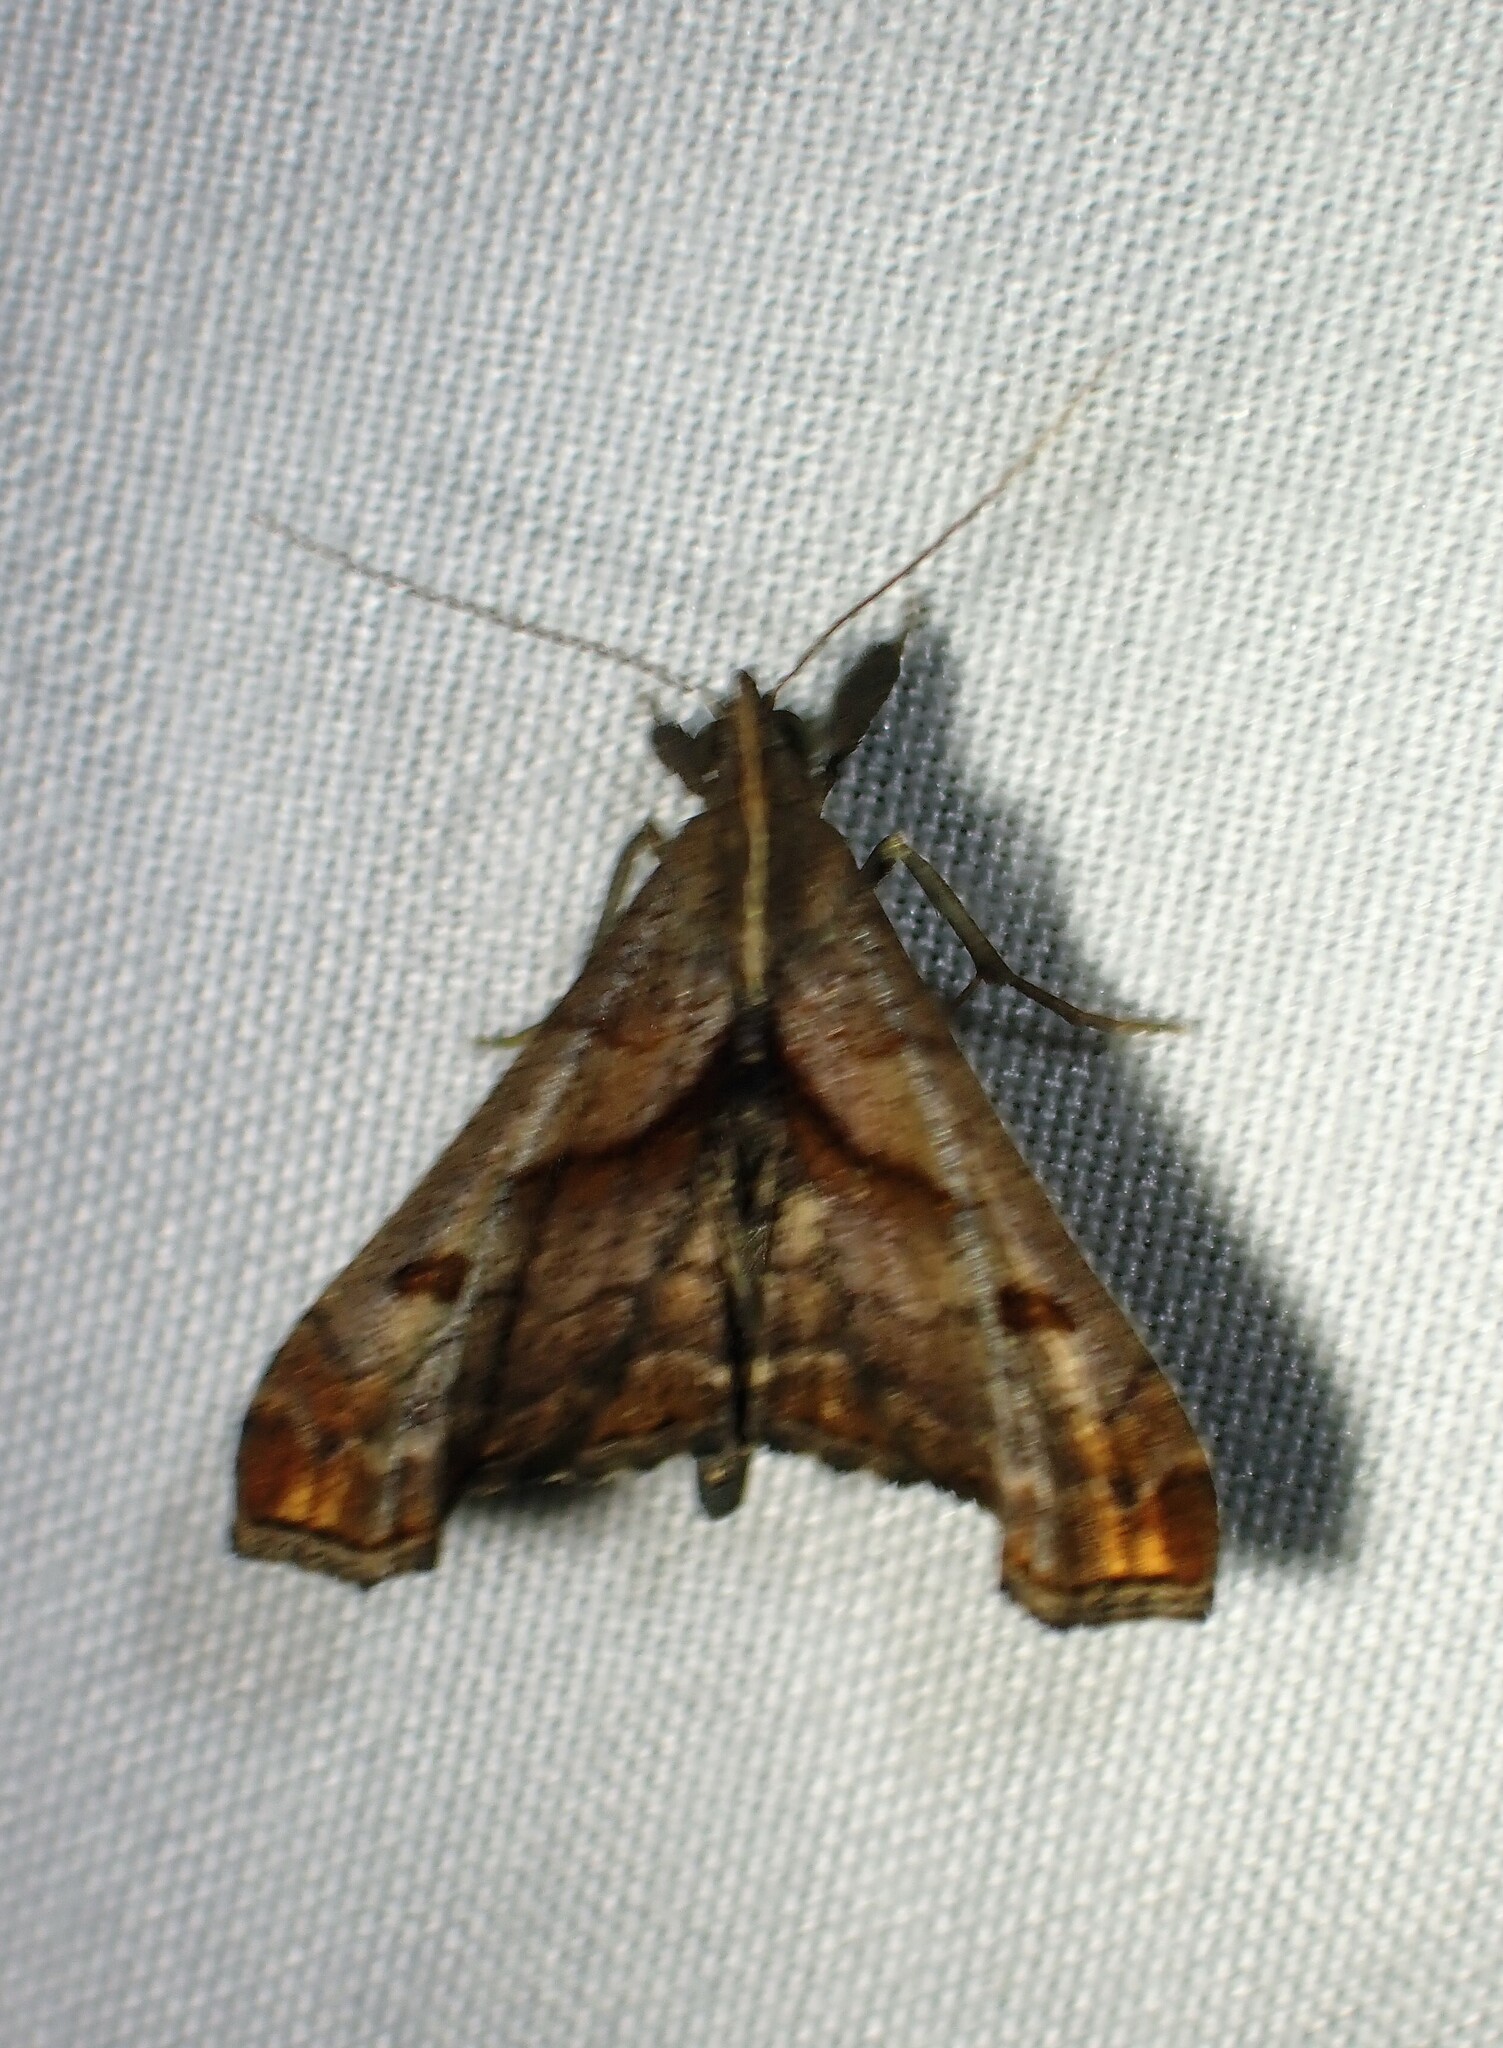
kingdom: Animalia
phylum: Arthropoda
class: Insecta
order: Lepidoptera
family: Erebidae
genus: Palthis
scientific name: Palthis angulalis
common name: Dark-spotted palthis moth
